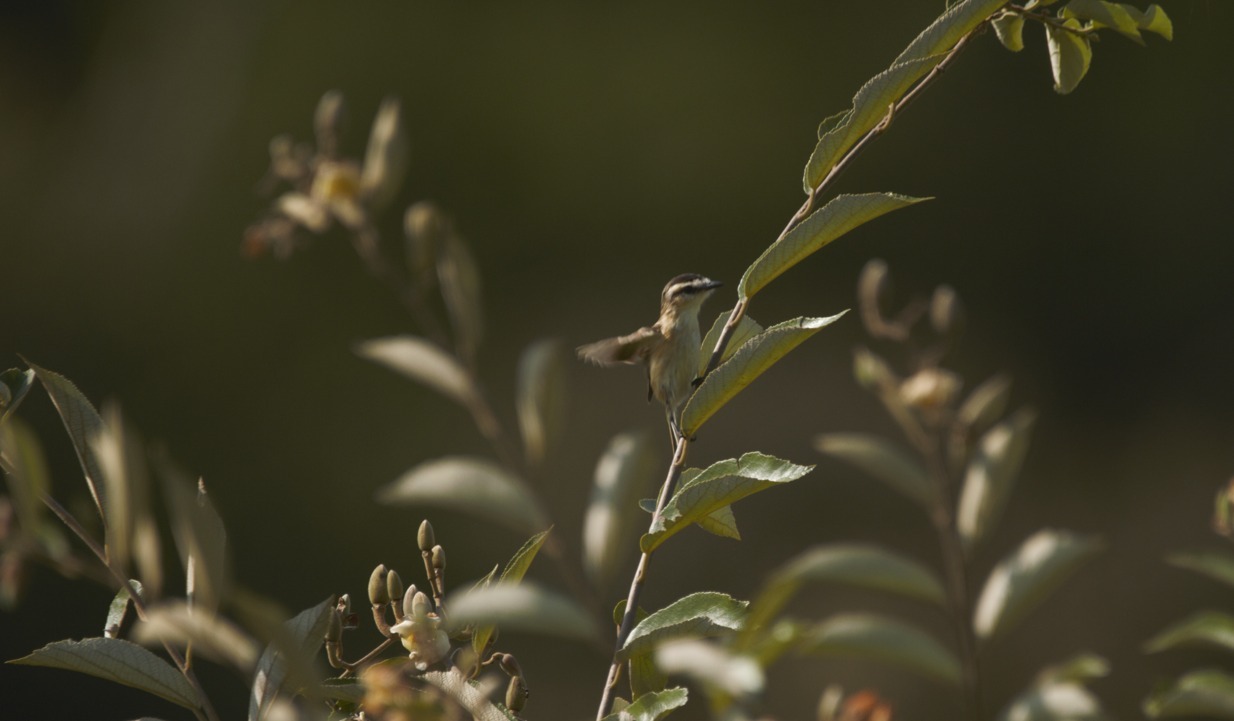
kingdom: Animalia
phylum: Chordata
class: Aves
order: Passeriformes
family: Tyrannidae
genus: Culicivora
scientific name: Culicivora caudacuta
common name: Sharp-tailed grass tyrant
